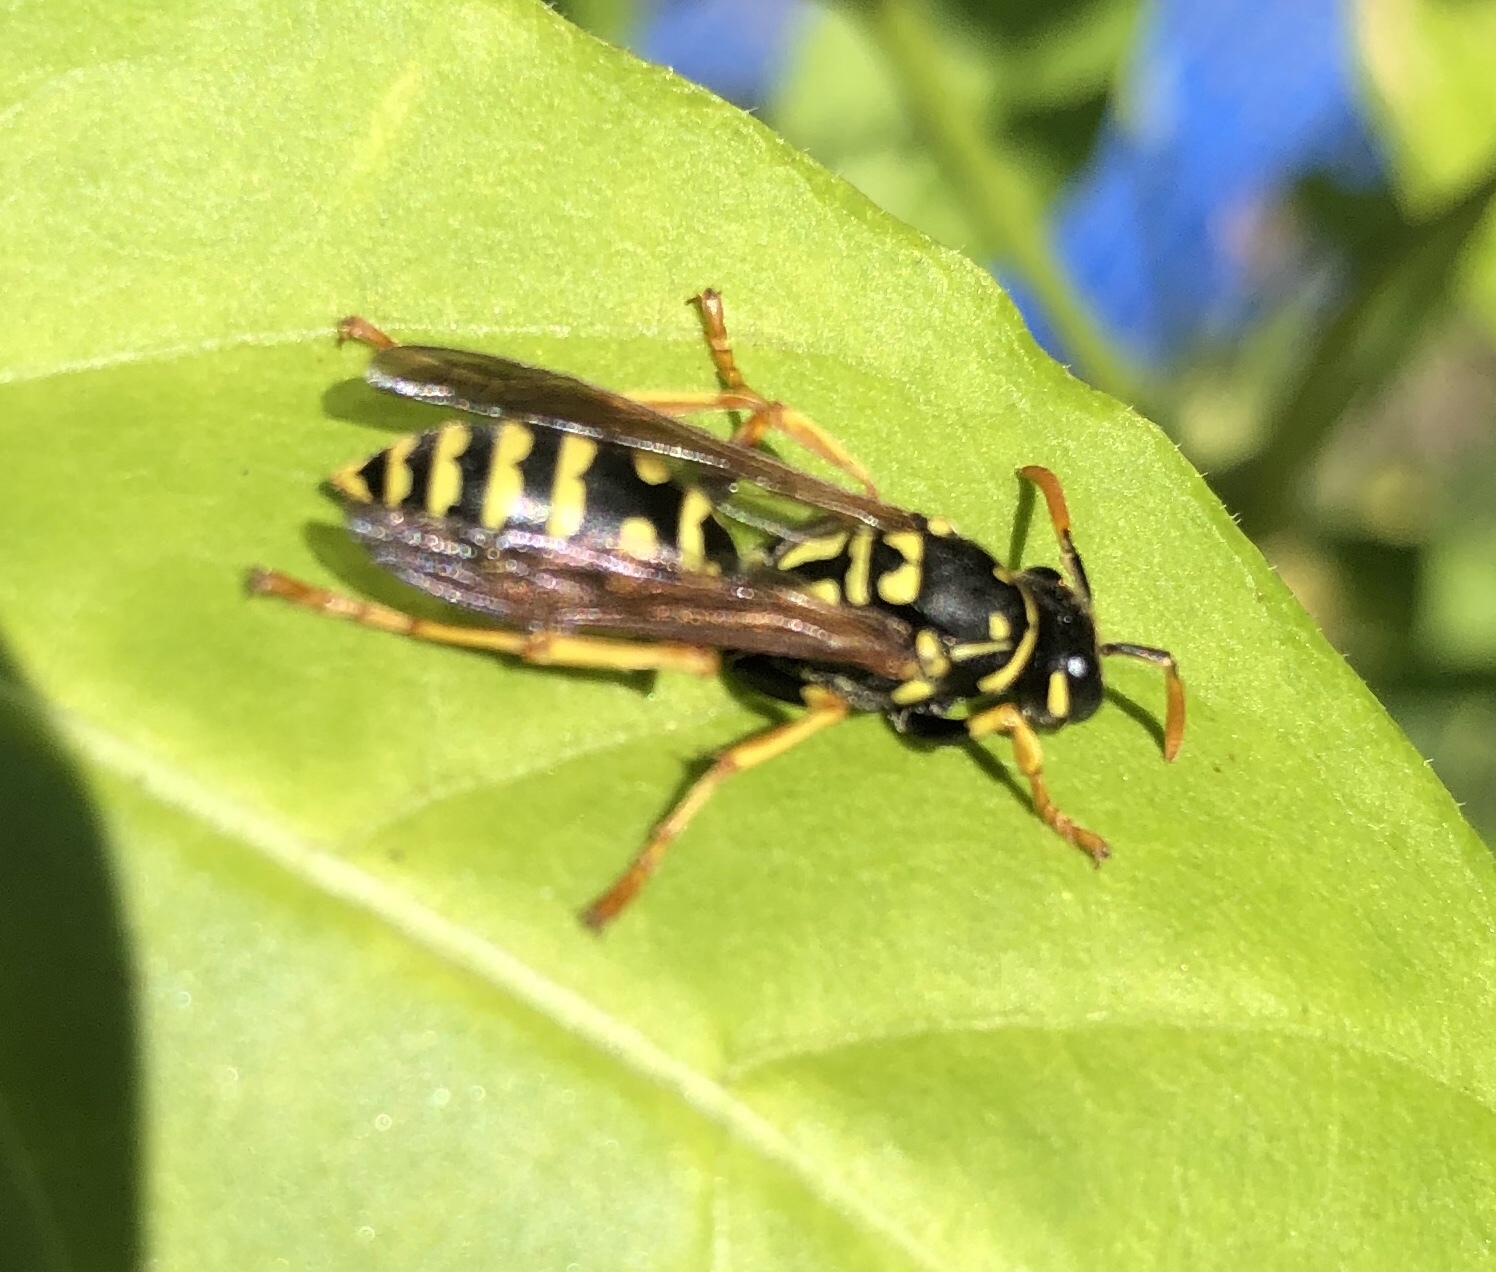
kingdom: Animalia
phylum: Arthropoda
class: Insecta
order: Hymenoptera
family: Eumenidae
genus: Polistes
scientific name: Polistes dominula
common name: Paper wasp
